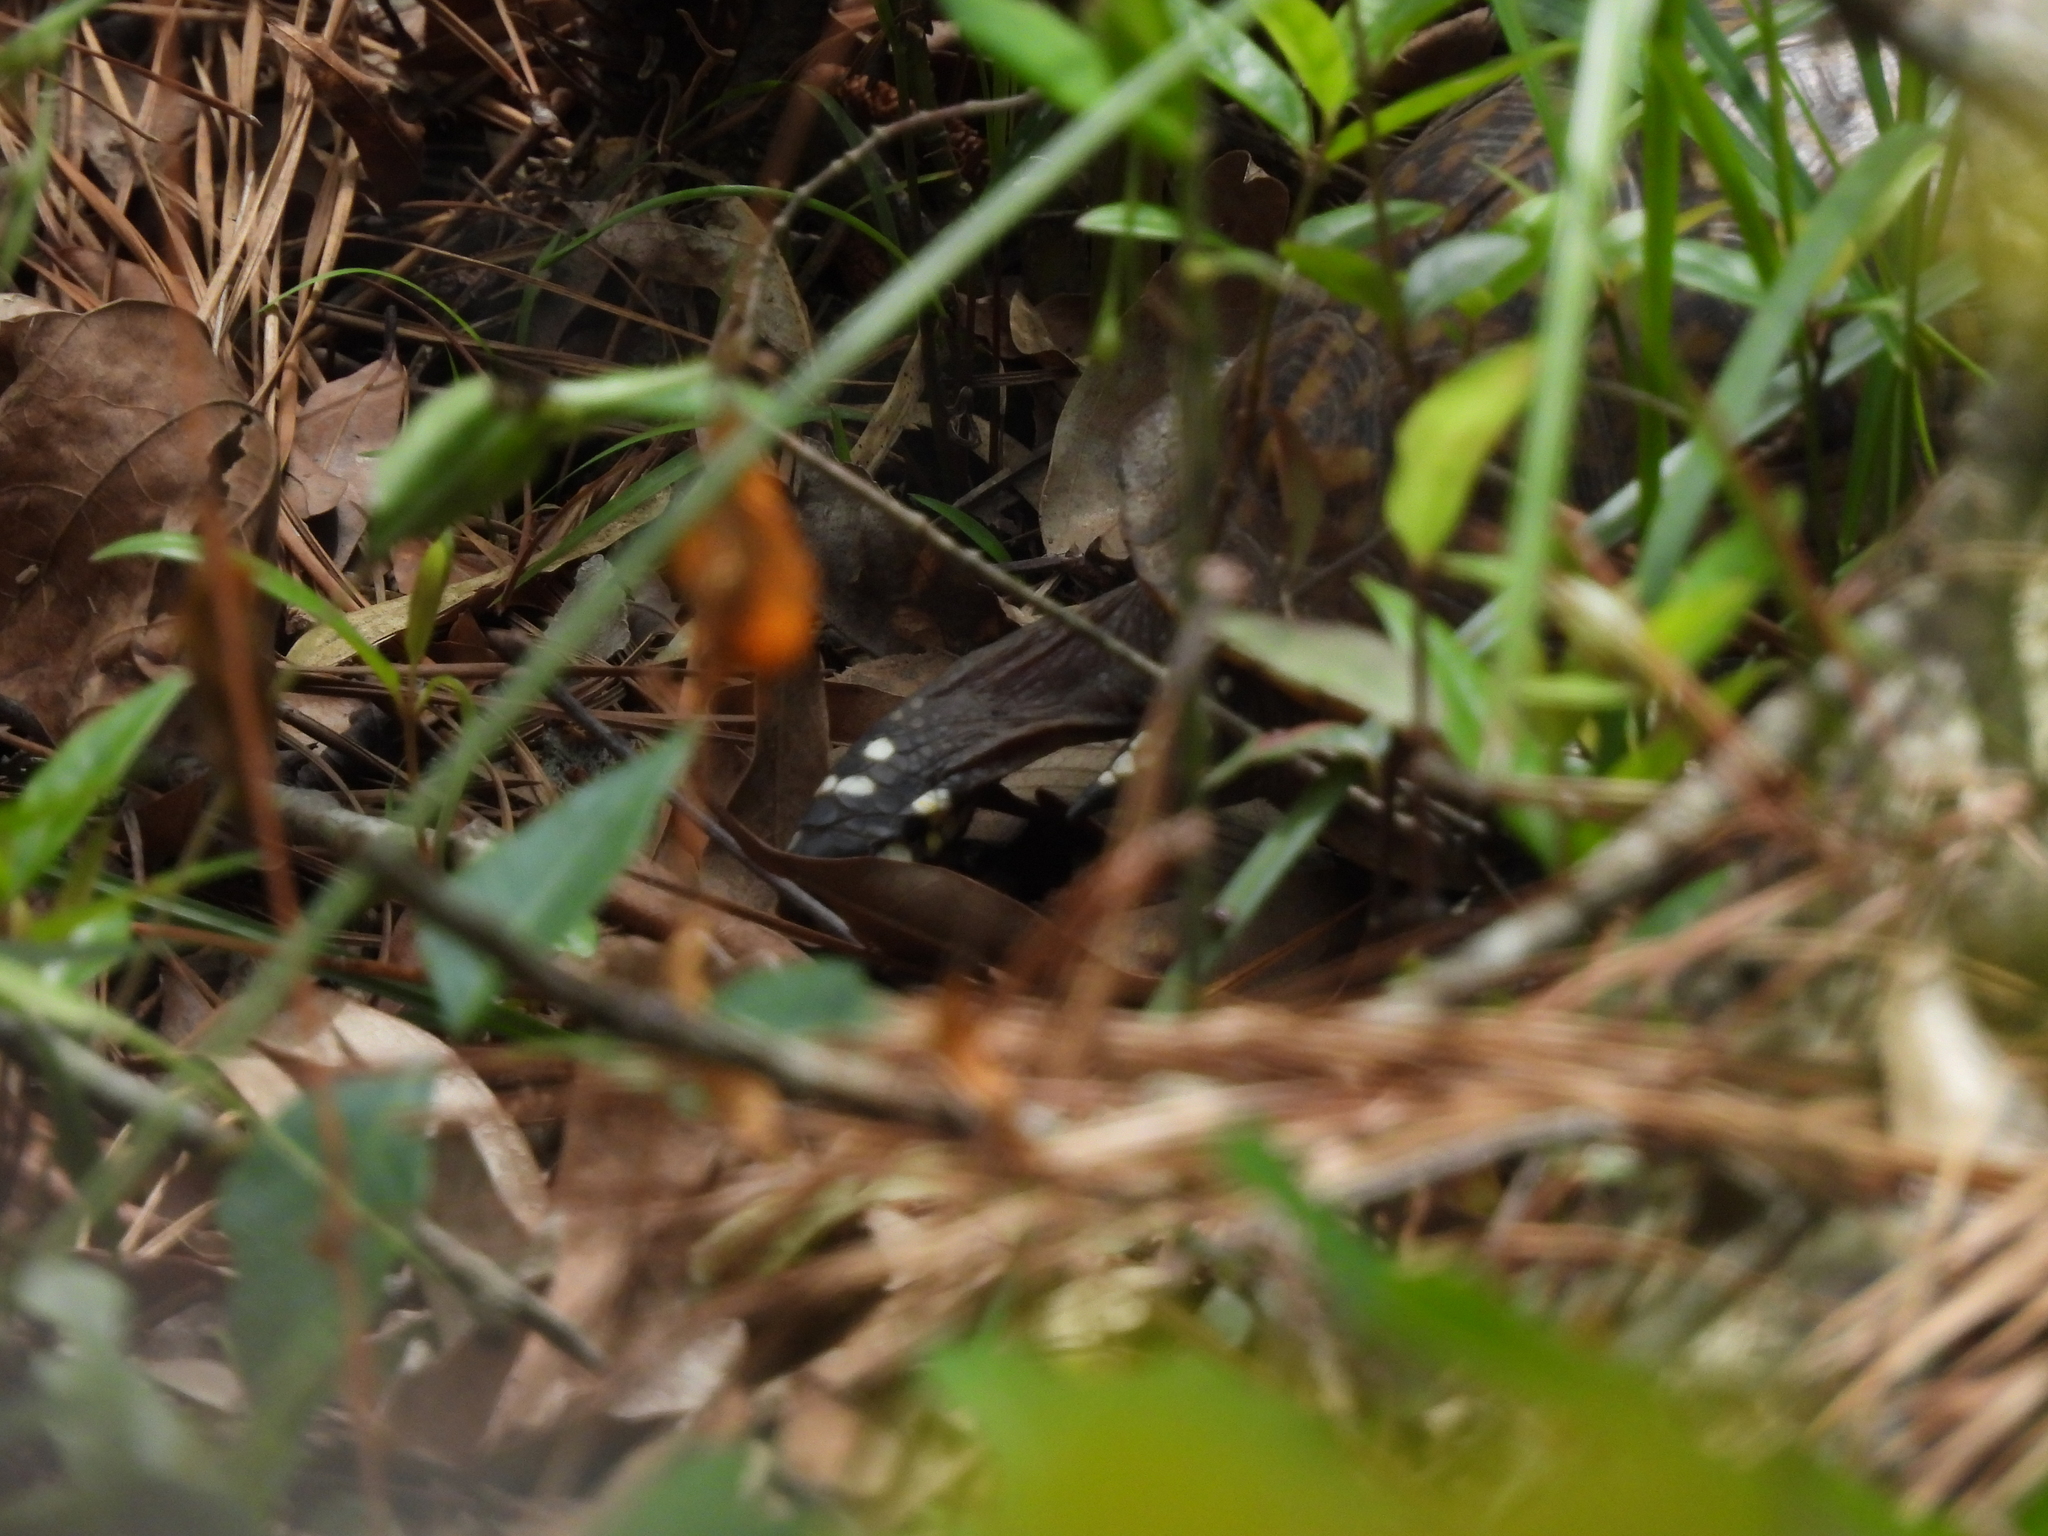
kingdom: Animalia
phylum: Chordata
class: Testudines
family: Emydidae
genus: Terrapene
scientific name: Terrapene carolina
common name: Common box turtle
